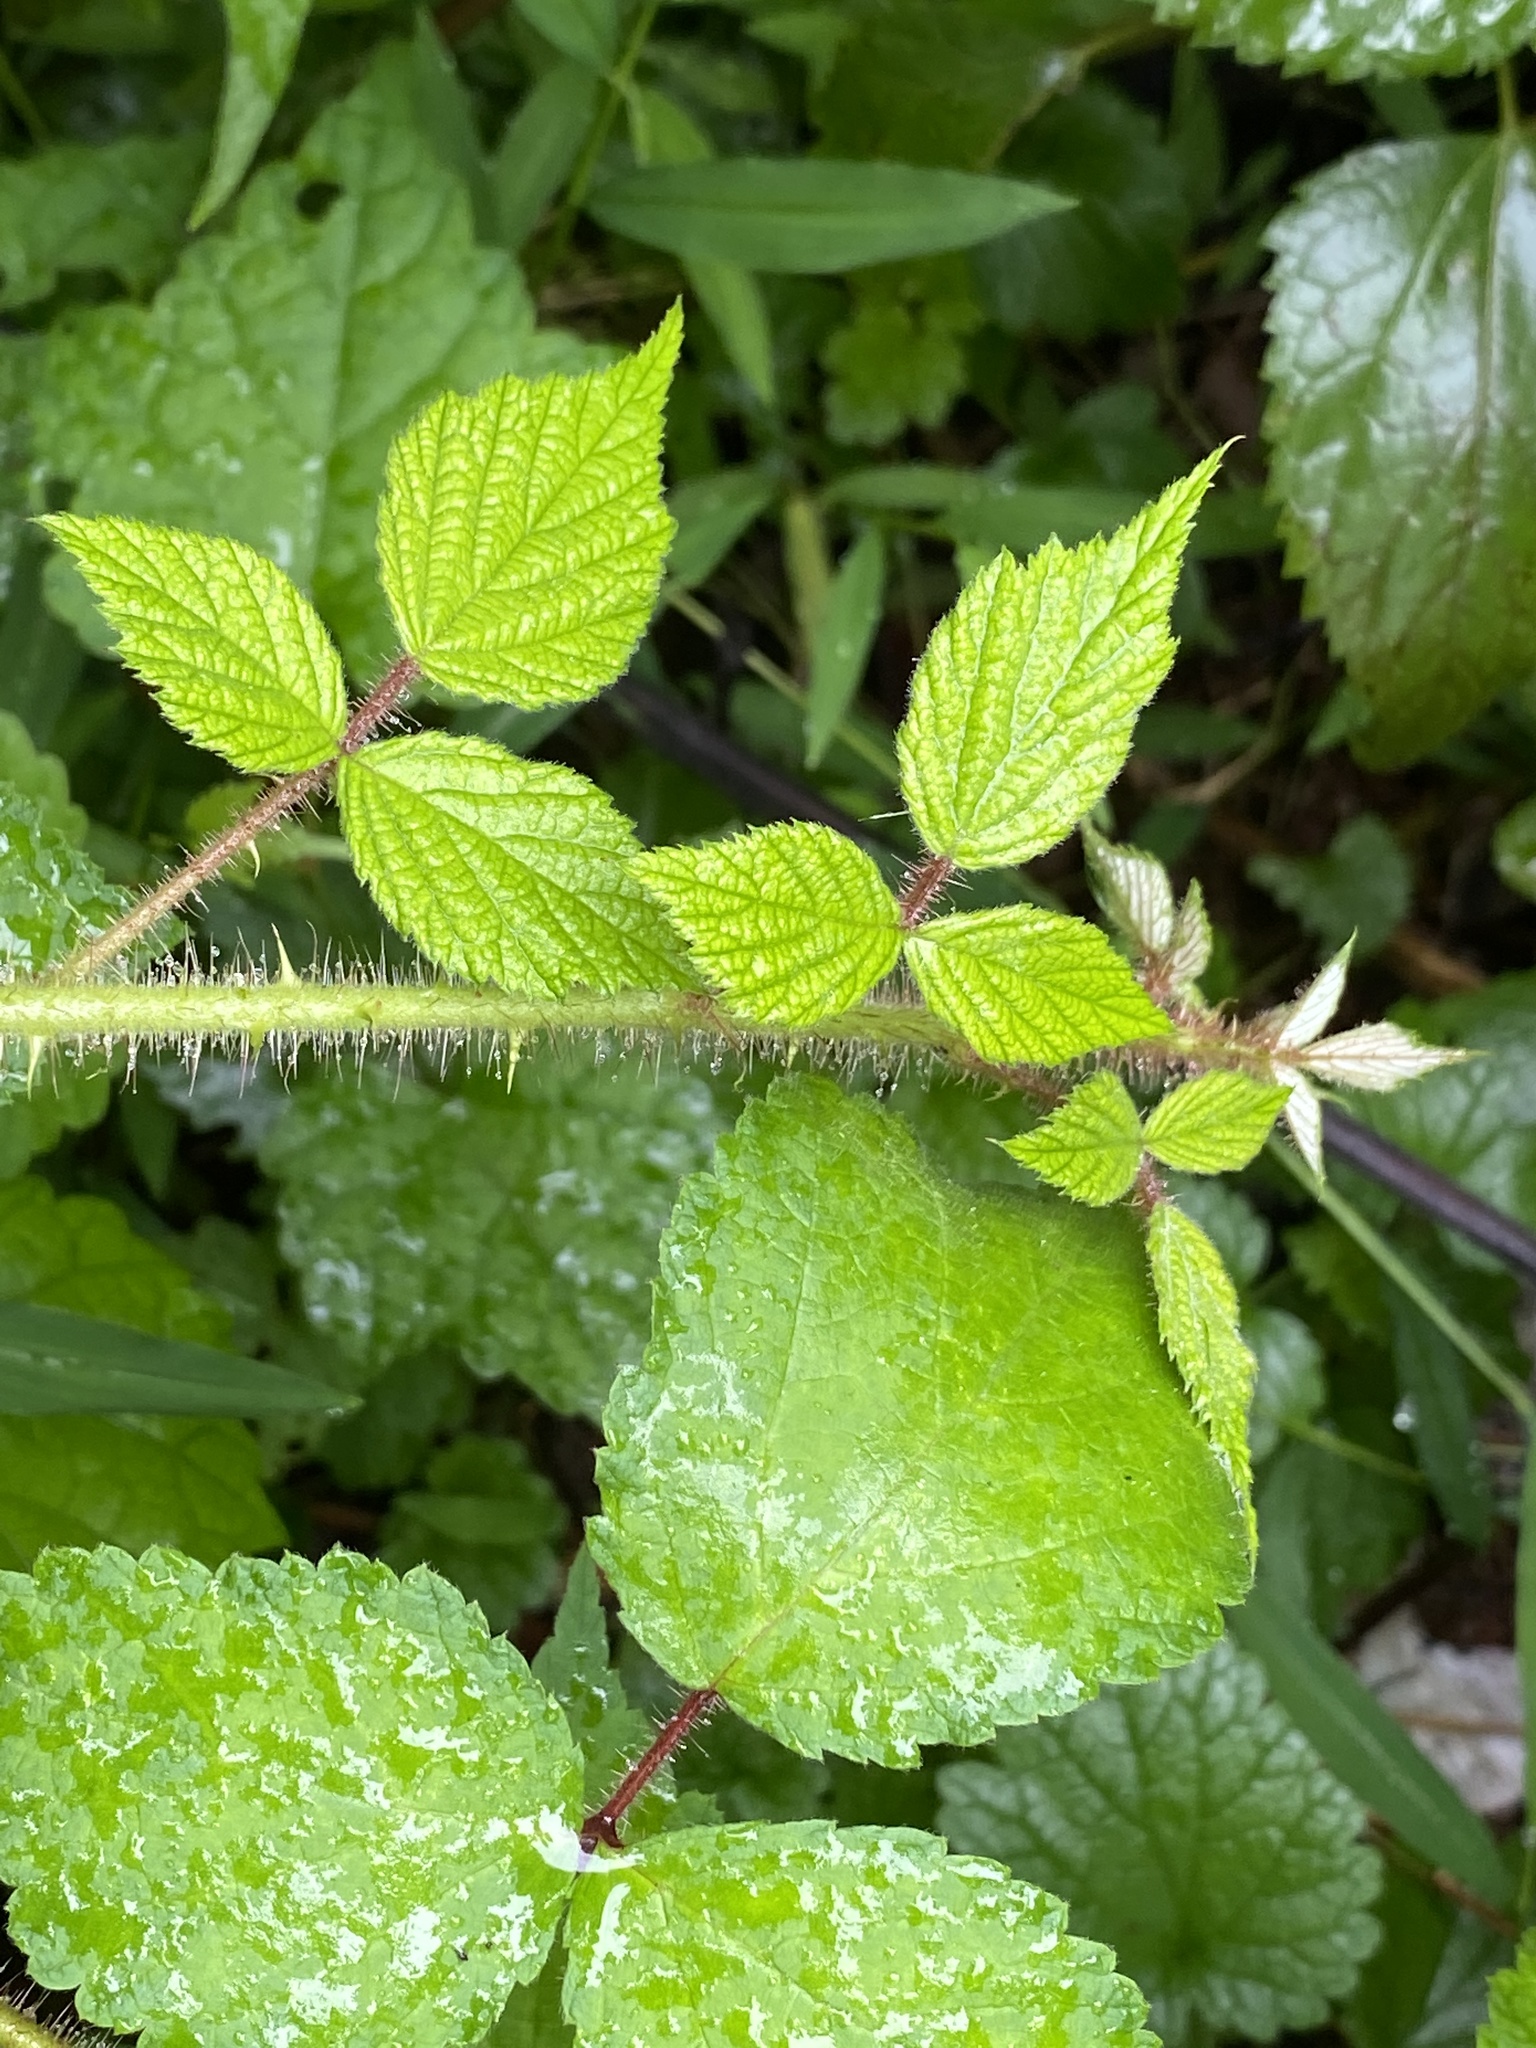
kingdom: Plantae
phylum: Tracheophyta
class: Magnoliopsida
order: Rosales
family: Rosaceae
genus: Rubus
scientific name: Rubus phoenicolasius
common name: Japanese wineberry
